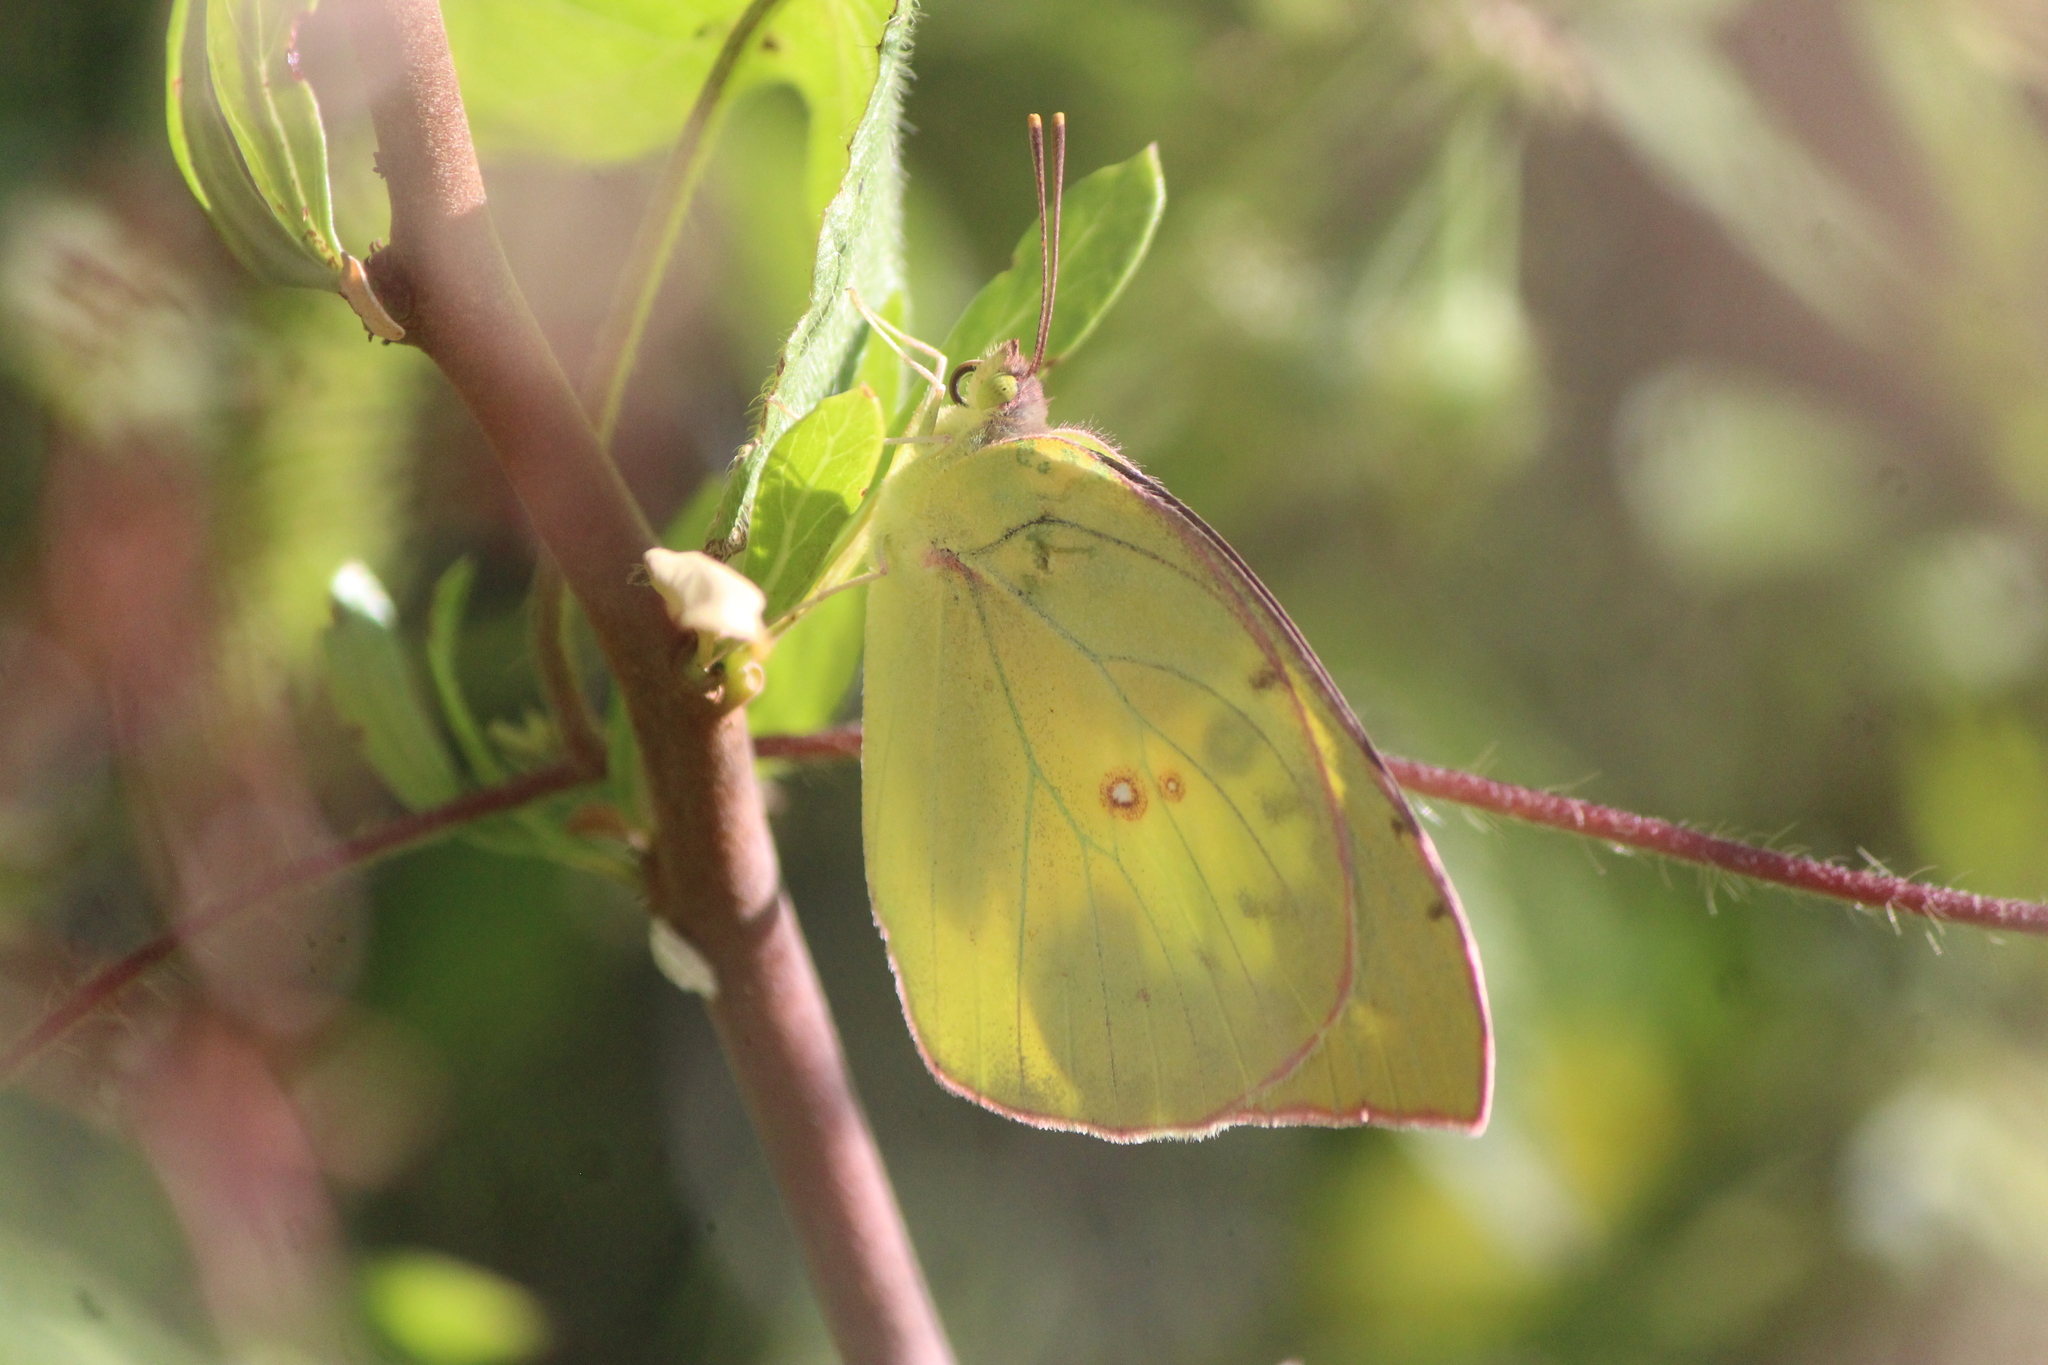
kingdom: Animalia
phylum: Arthropoda
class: Insecta
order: Lepidoptera
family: Pieridae
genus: Zerene
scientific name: Zerene cesonia
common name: Southern dogface
